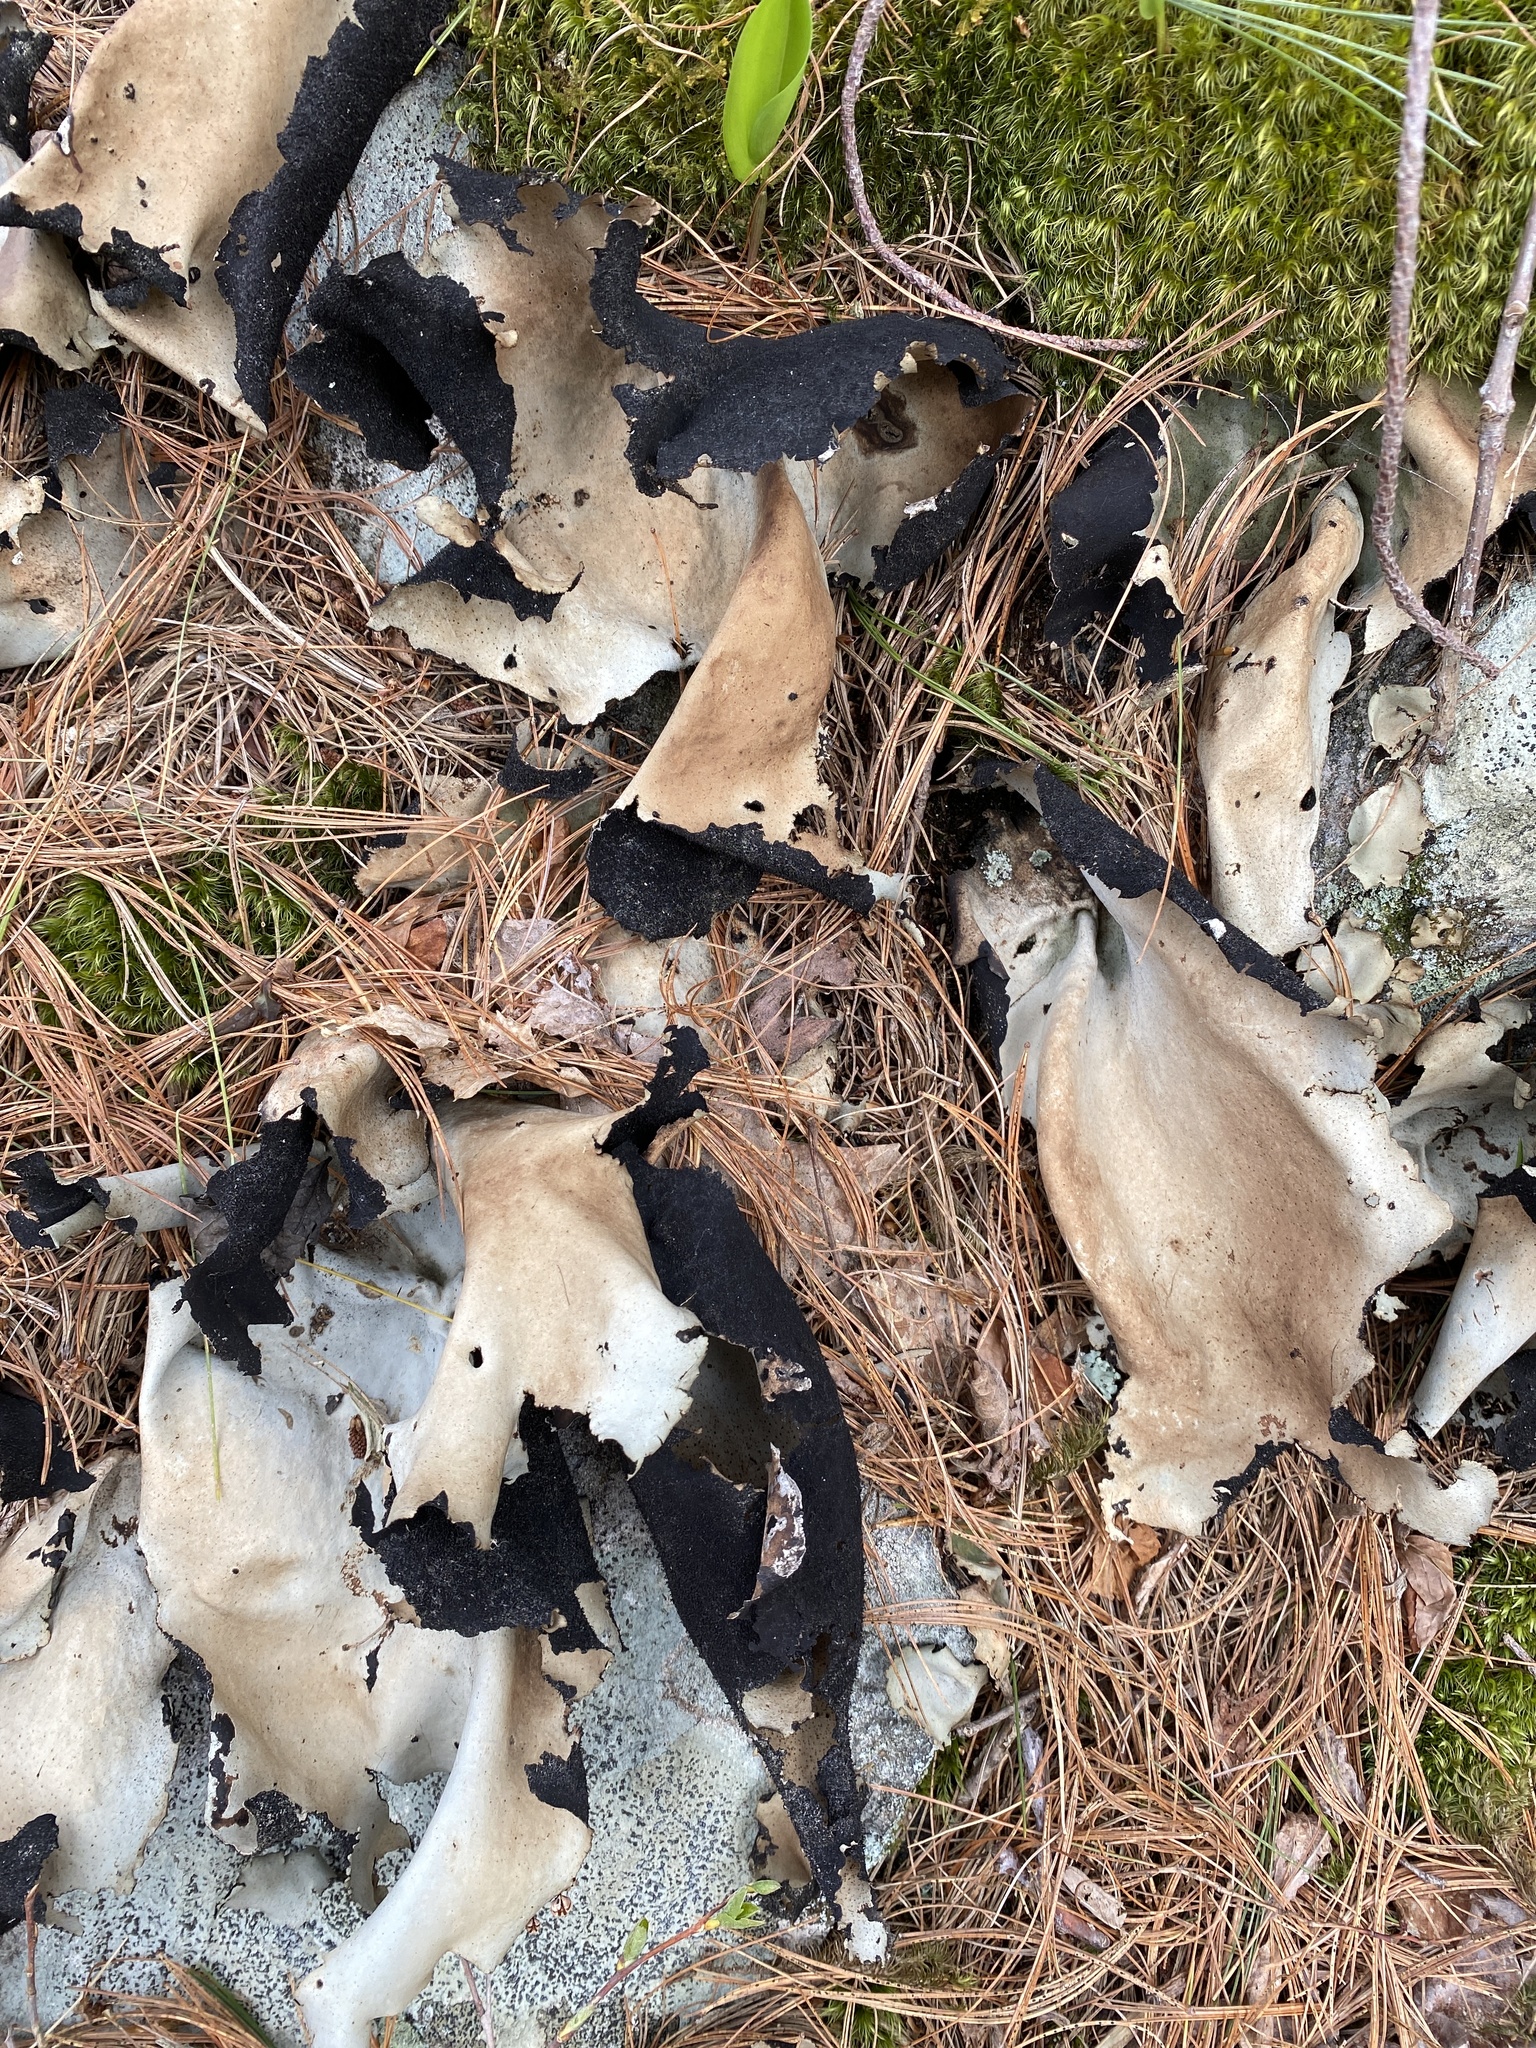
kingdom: Fungi
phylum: Ascomycota
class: Lecanoromycetes
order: Umbilicariales
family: Umbilicariaceae
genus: Umbilicaria
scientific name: Umbilicaria mammulata
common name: Smooth rock tripe
